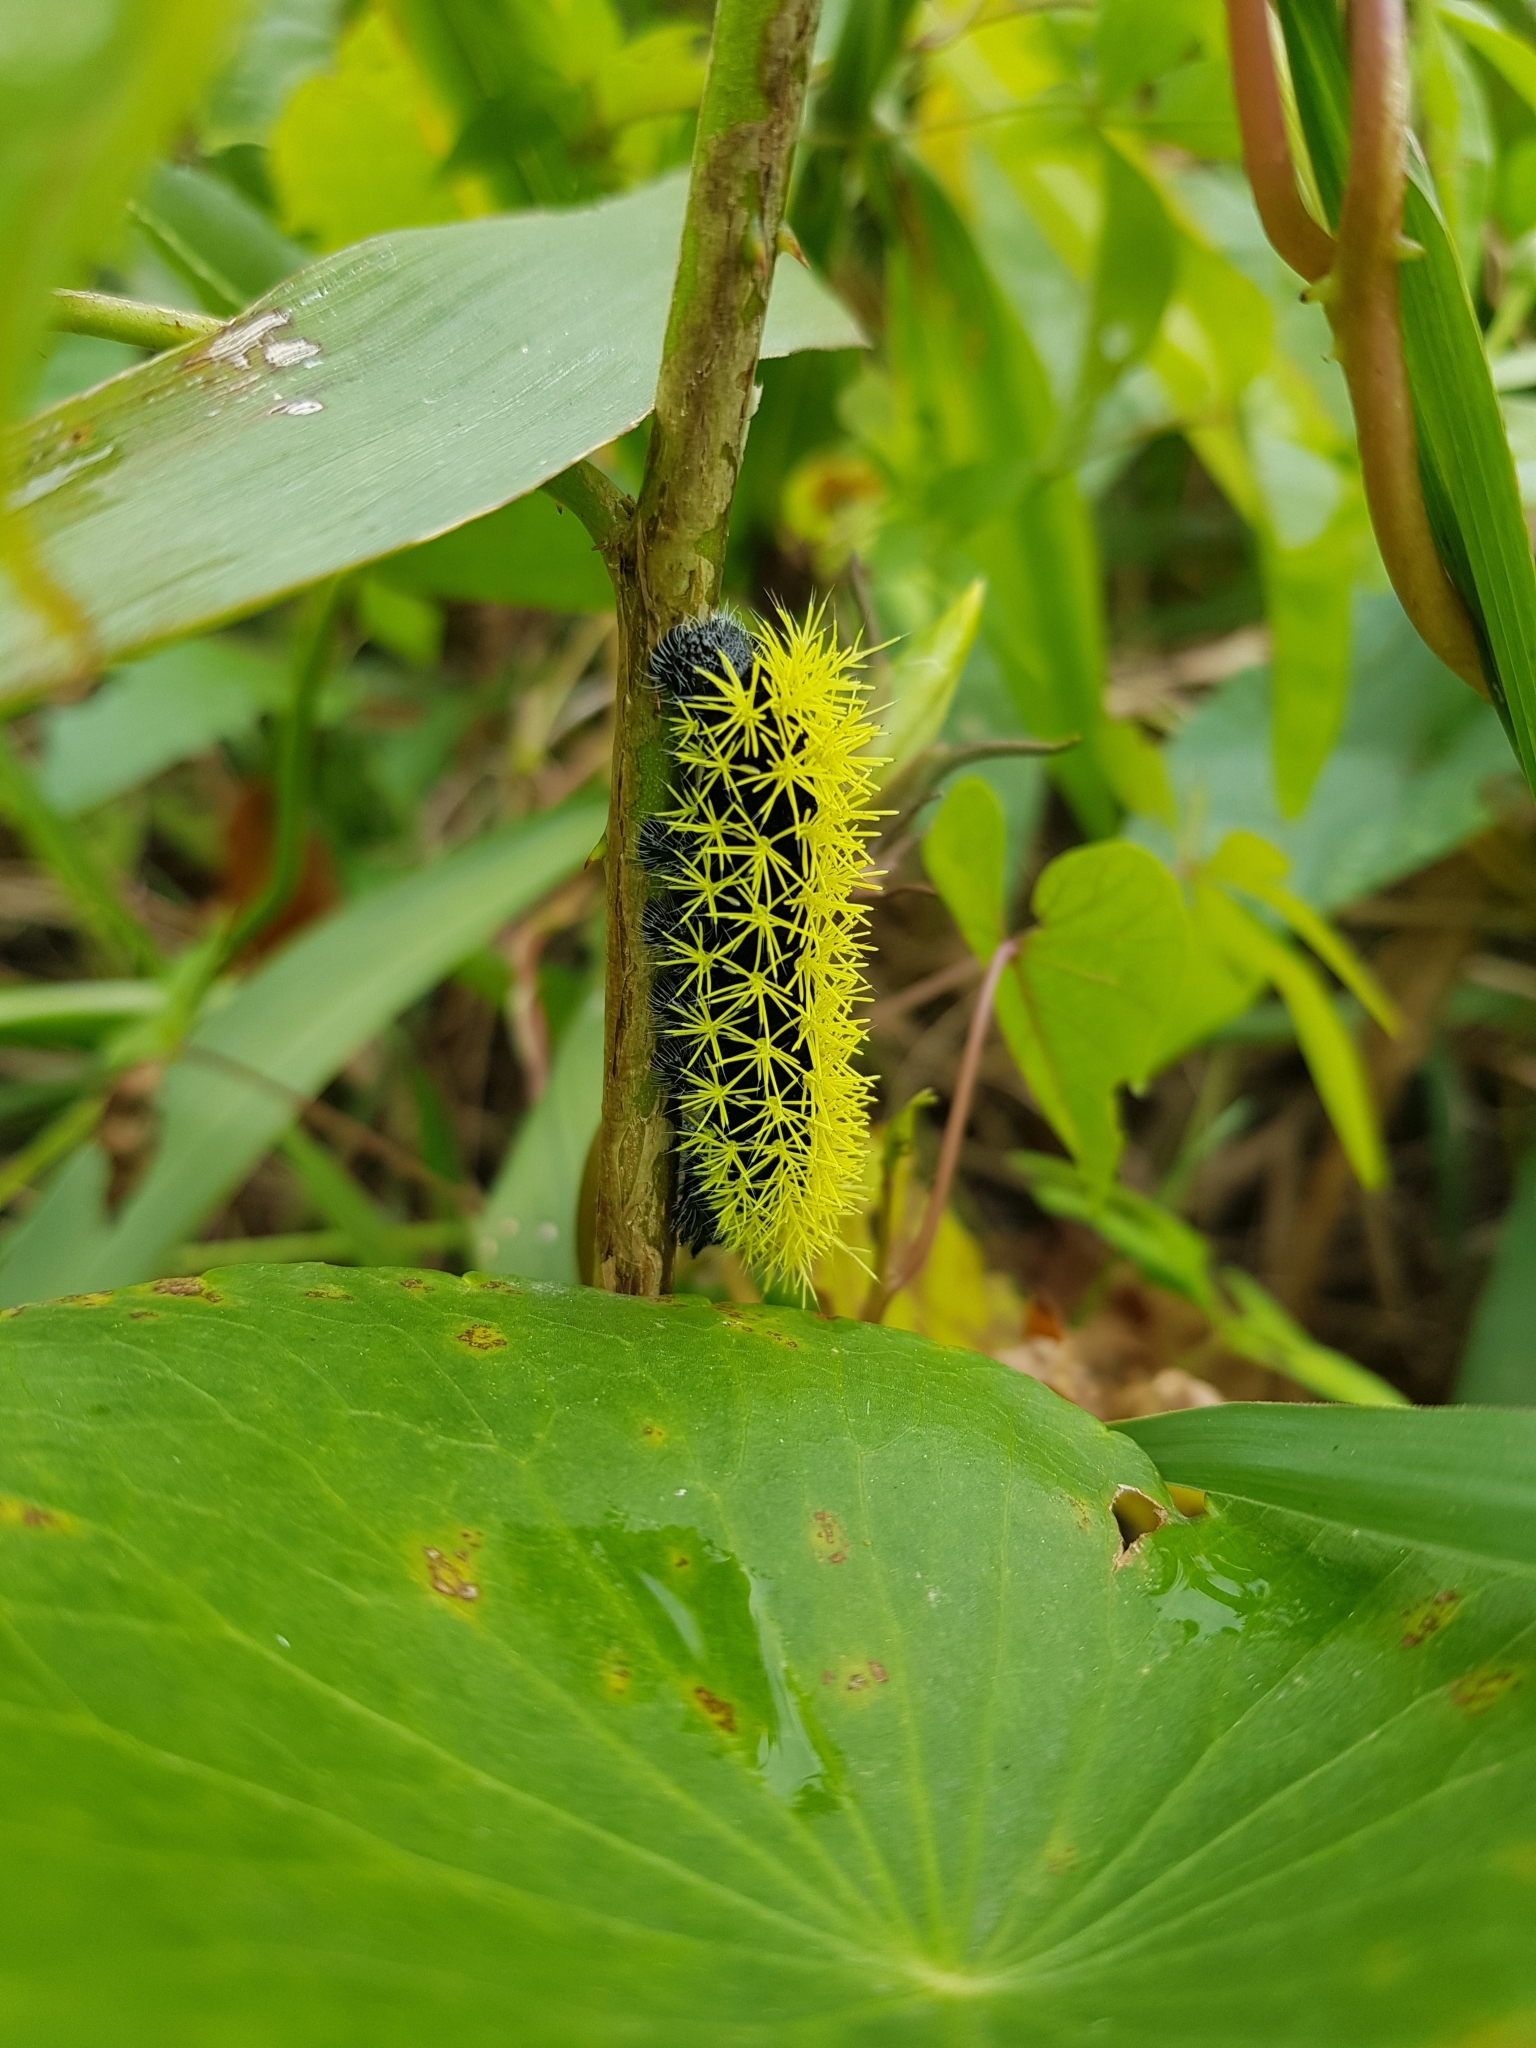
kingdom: Animalia
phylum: Arthropoda
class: Insecta
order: Lepidoptera
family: Saturniidae
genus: Leucanella
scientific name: Leucanella viridescens
